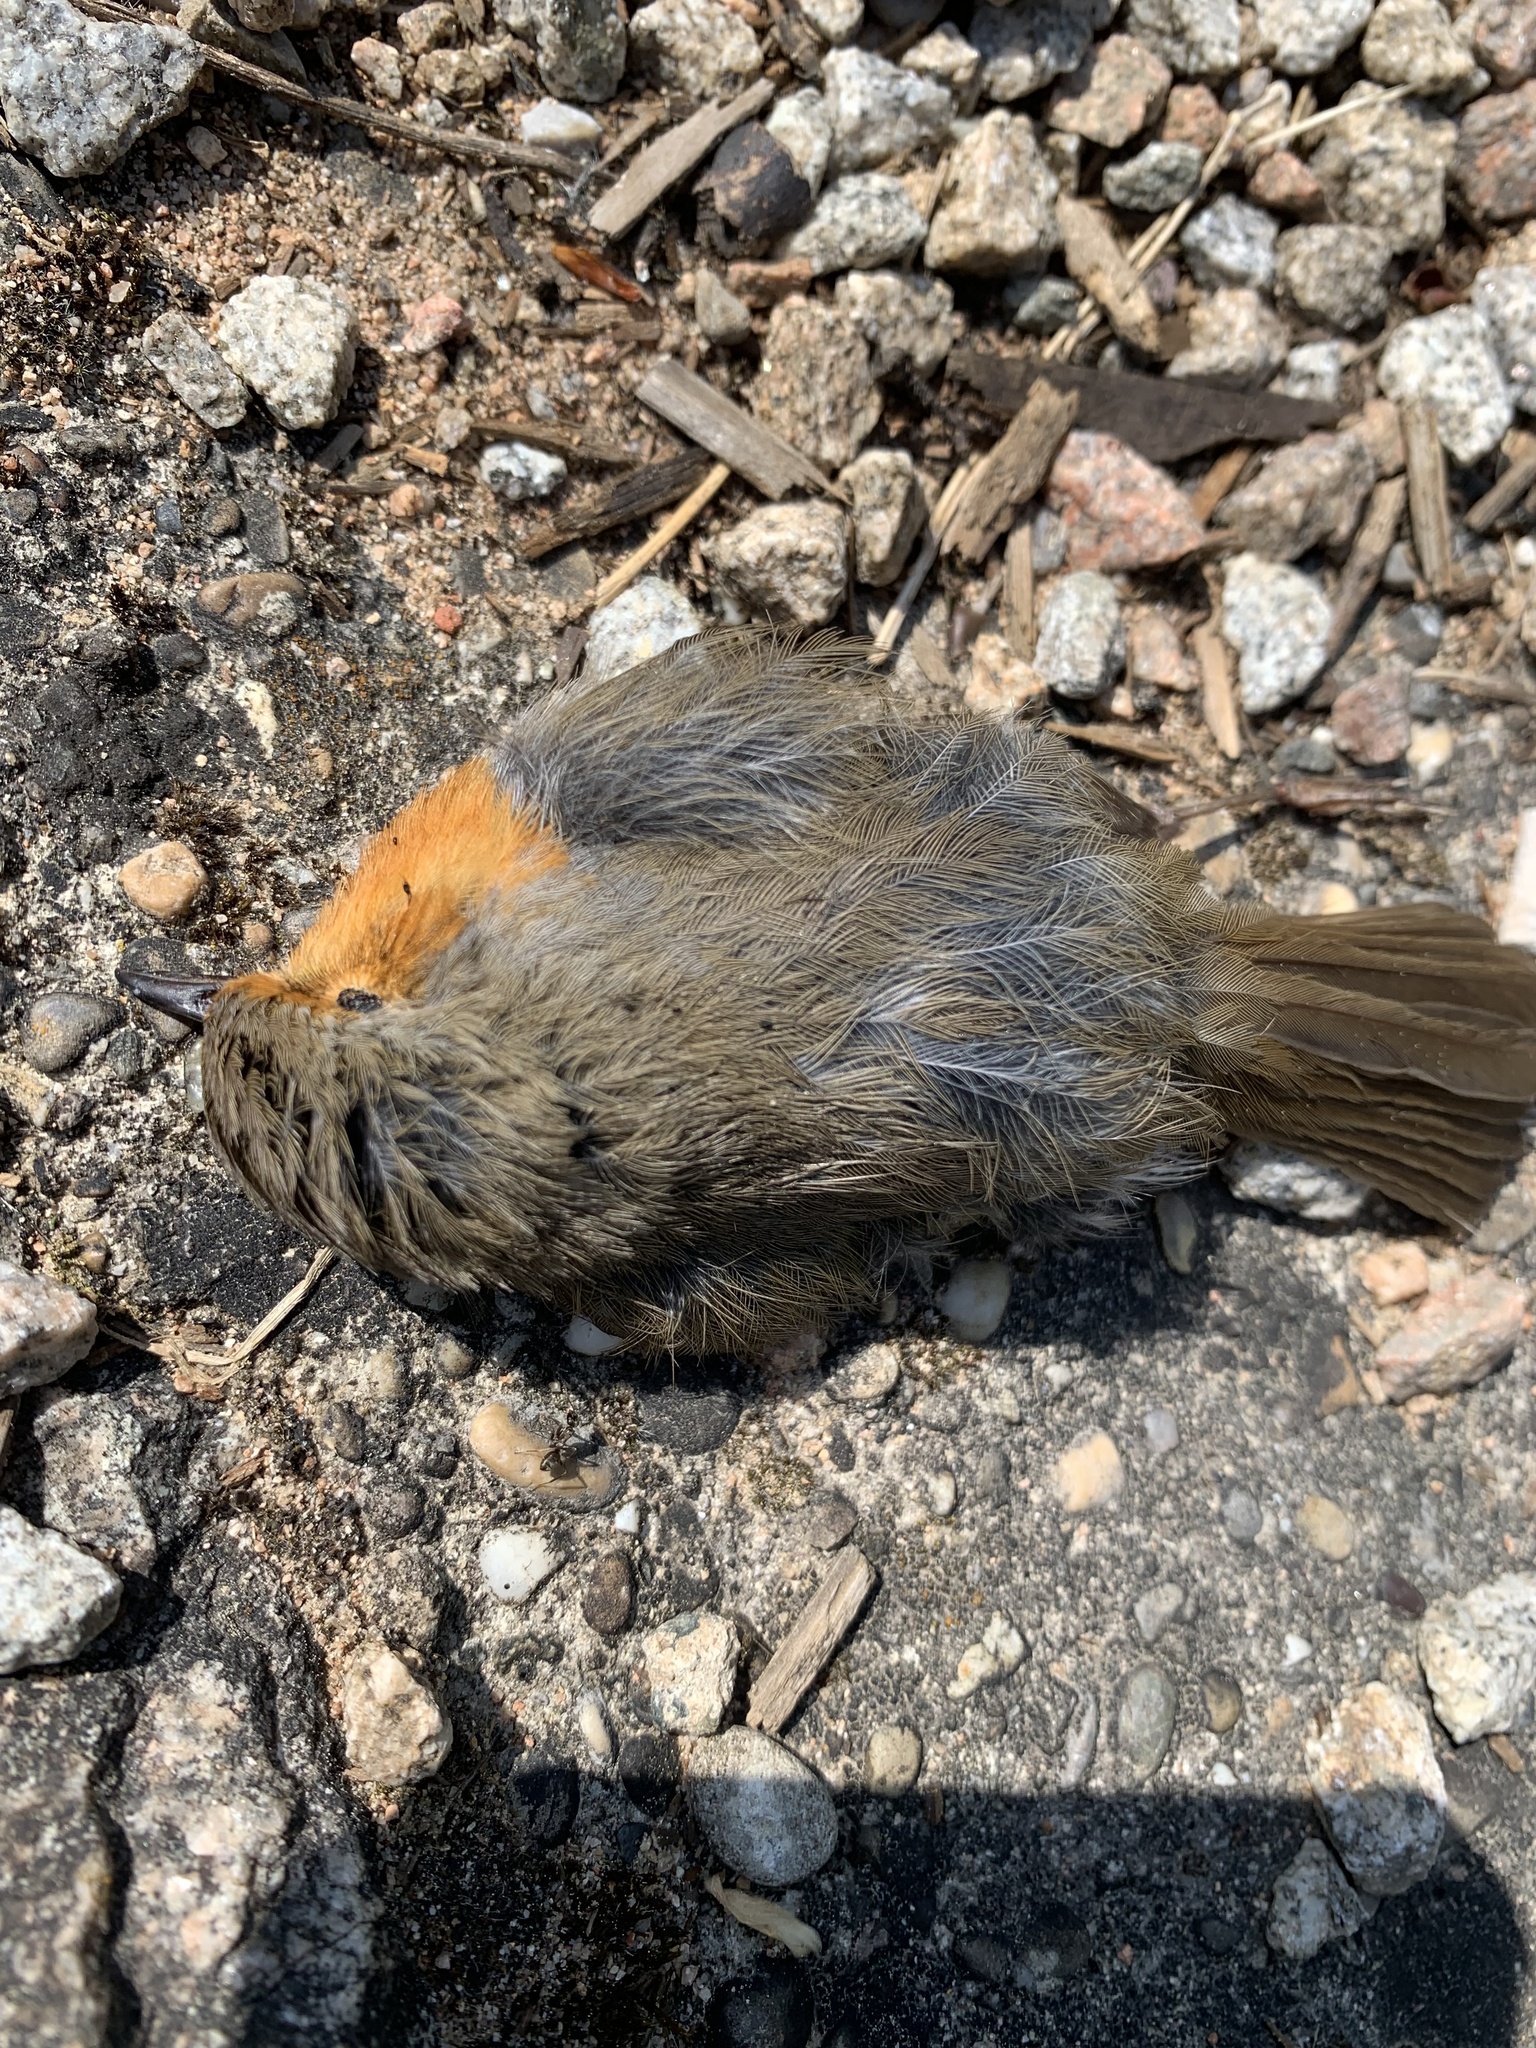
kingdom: Animalia
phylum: Chordata
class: Aves
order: Passeriformes
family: Muscicapidae
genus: Erithacus
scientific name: Erithacus rubecula
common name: European robin
